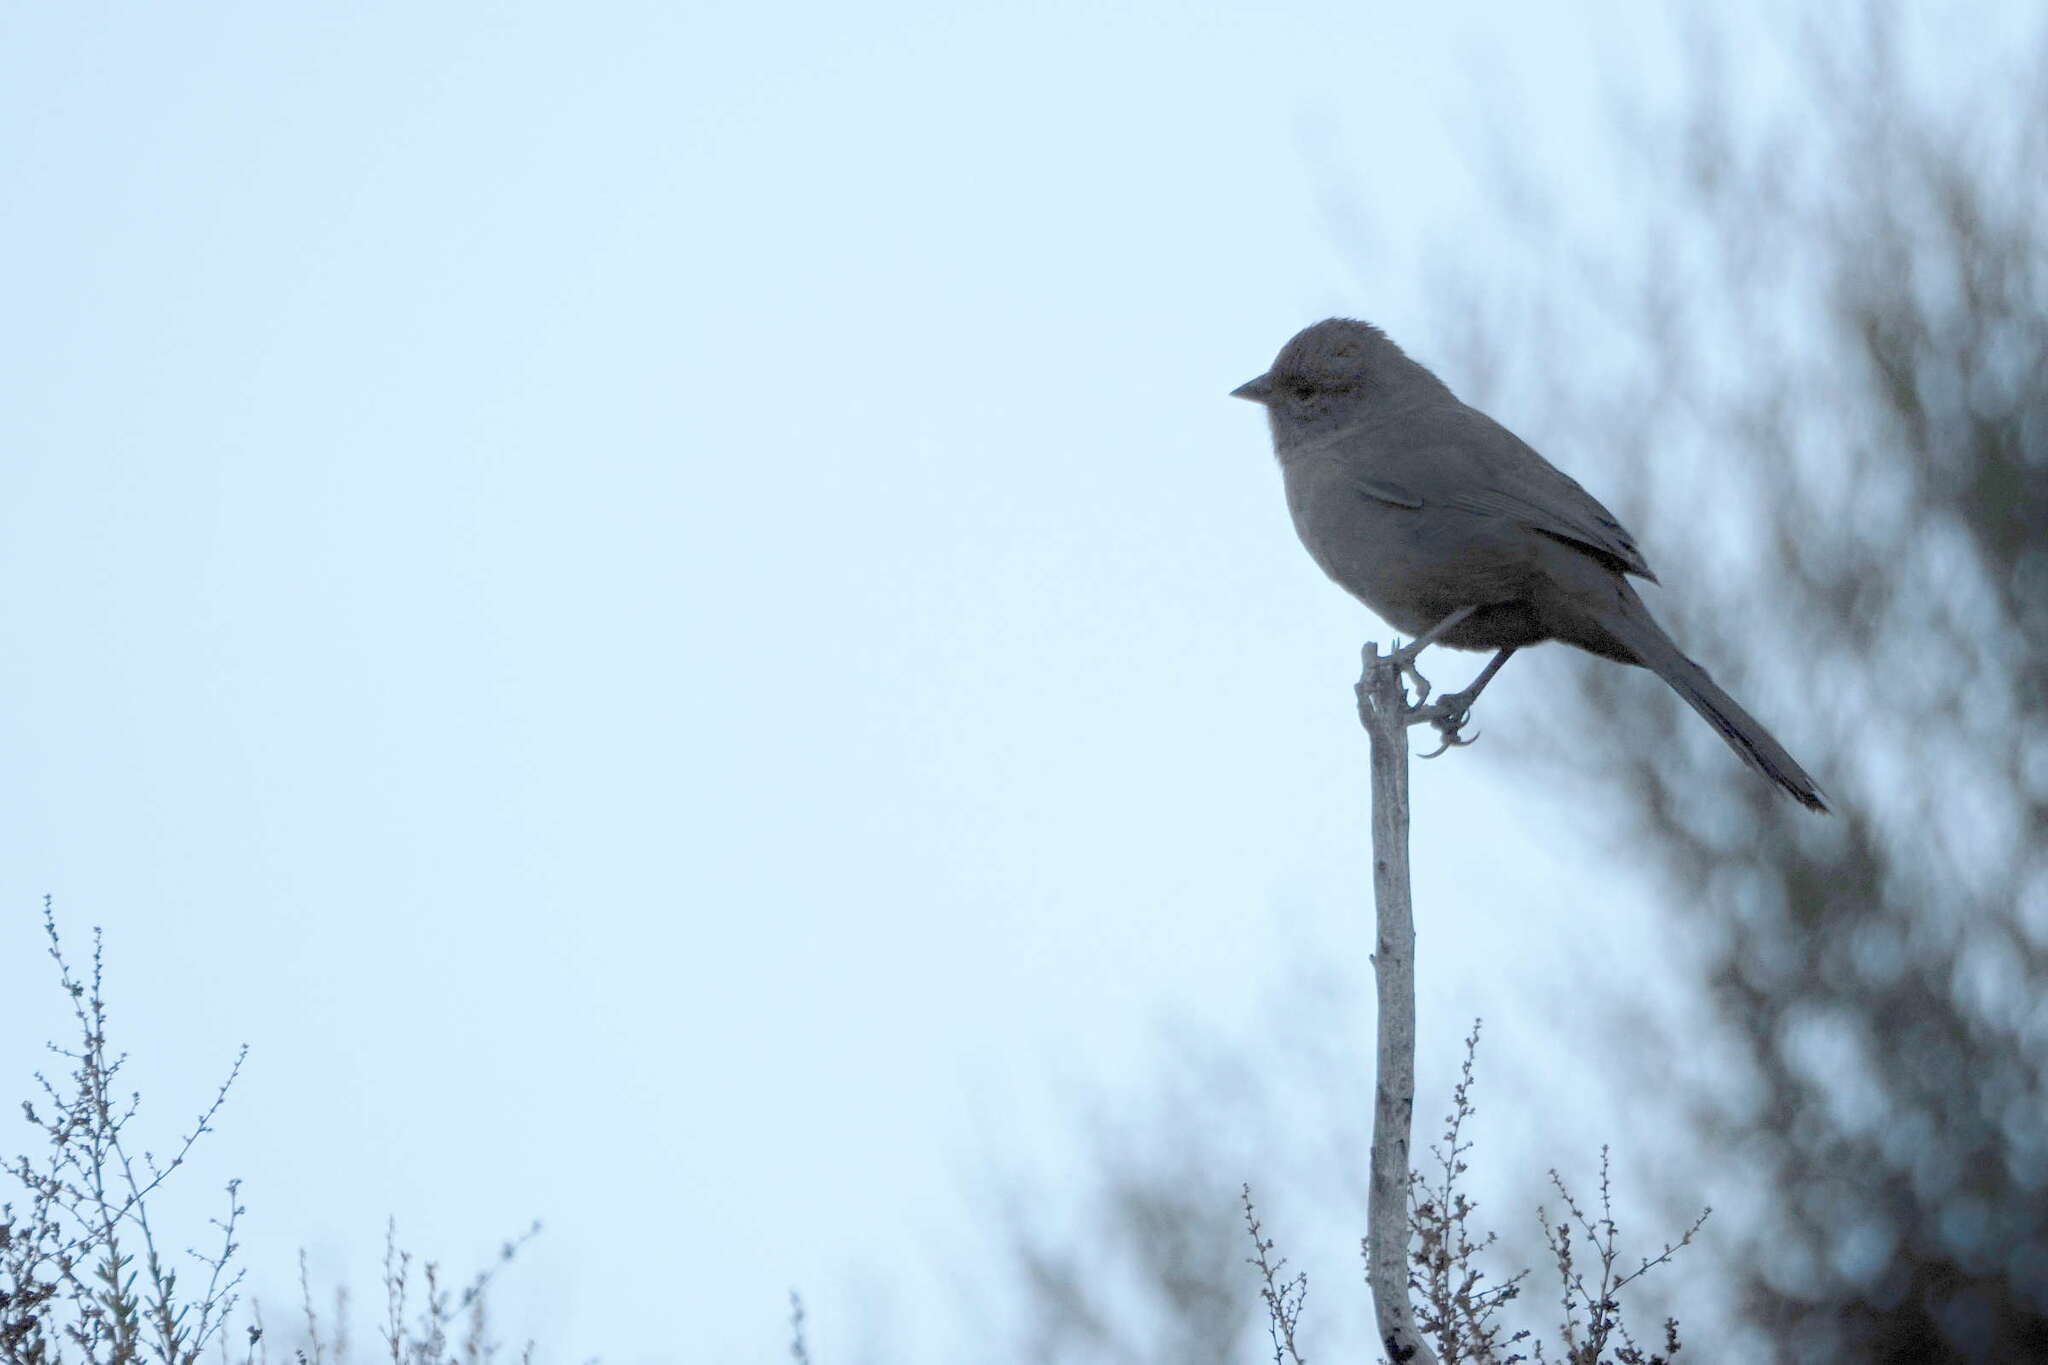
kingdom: Animalia
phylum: Chordata
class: Aves
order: Passeriformes
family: Passerellidae
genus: Melozone
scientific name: Melozone crissalis
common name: California towhee
